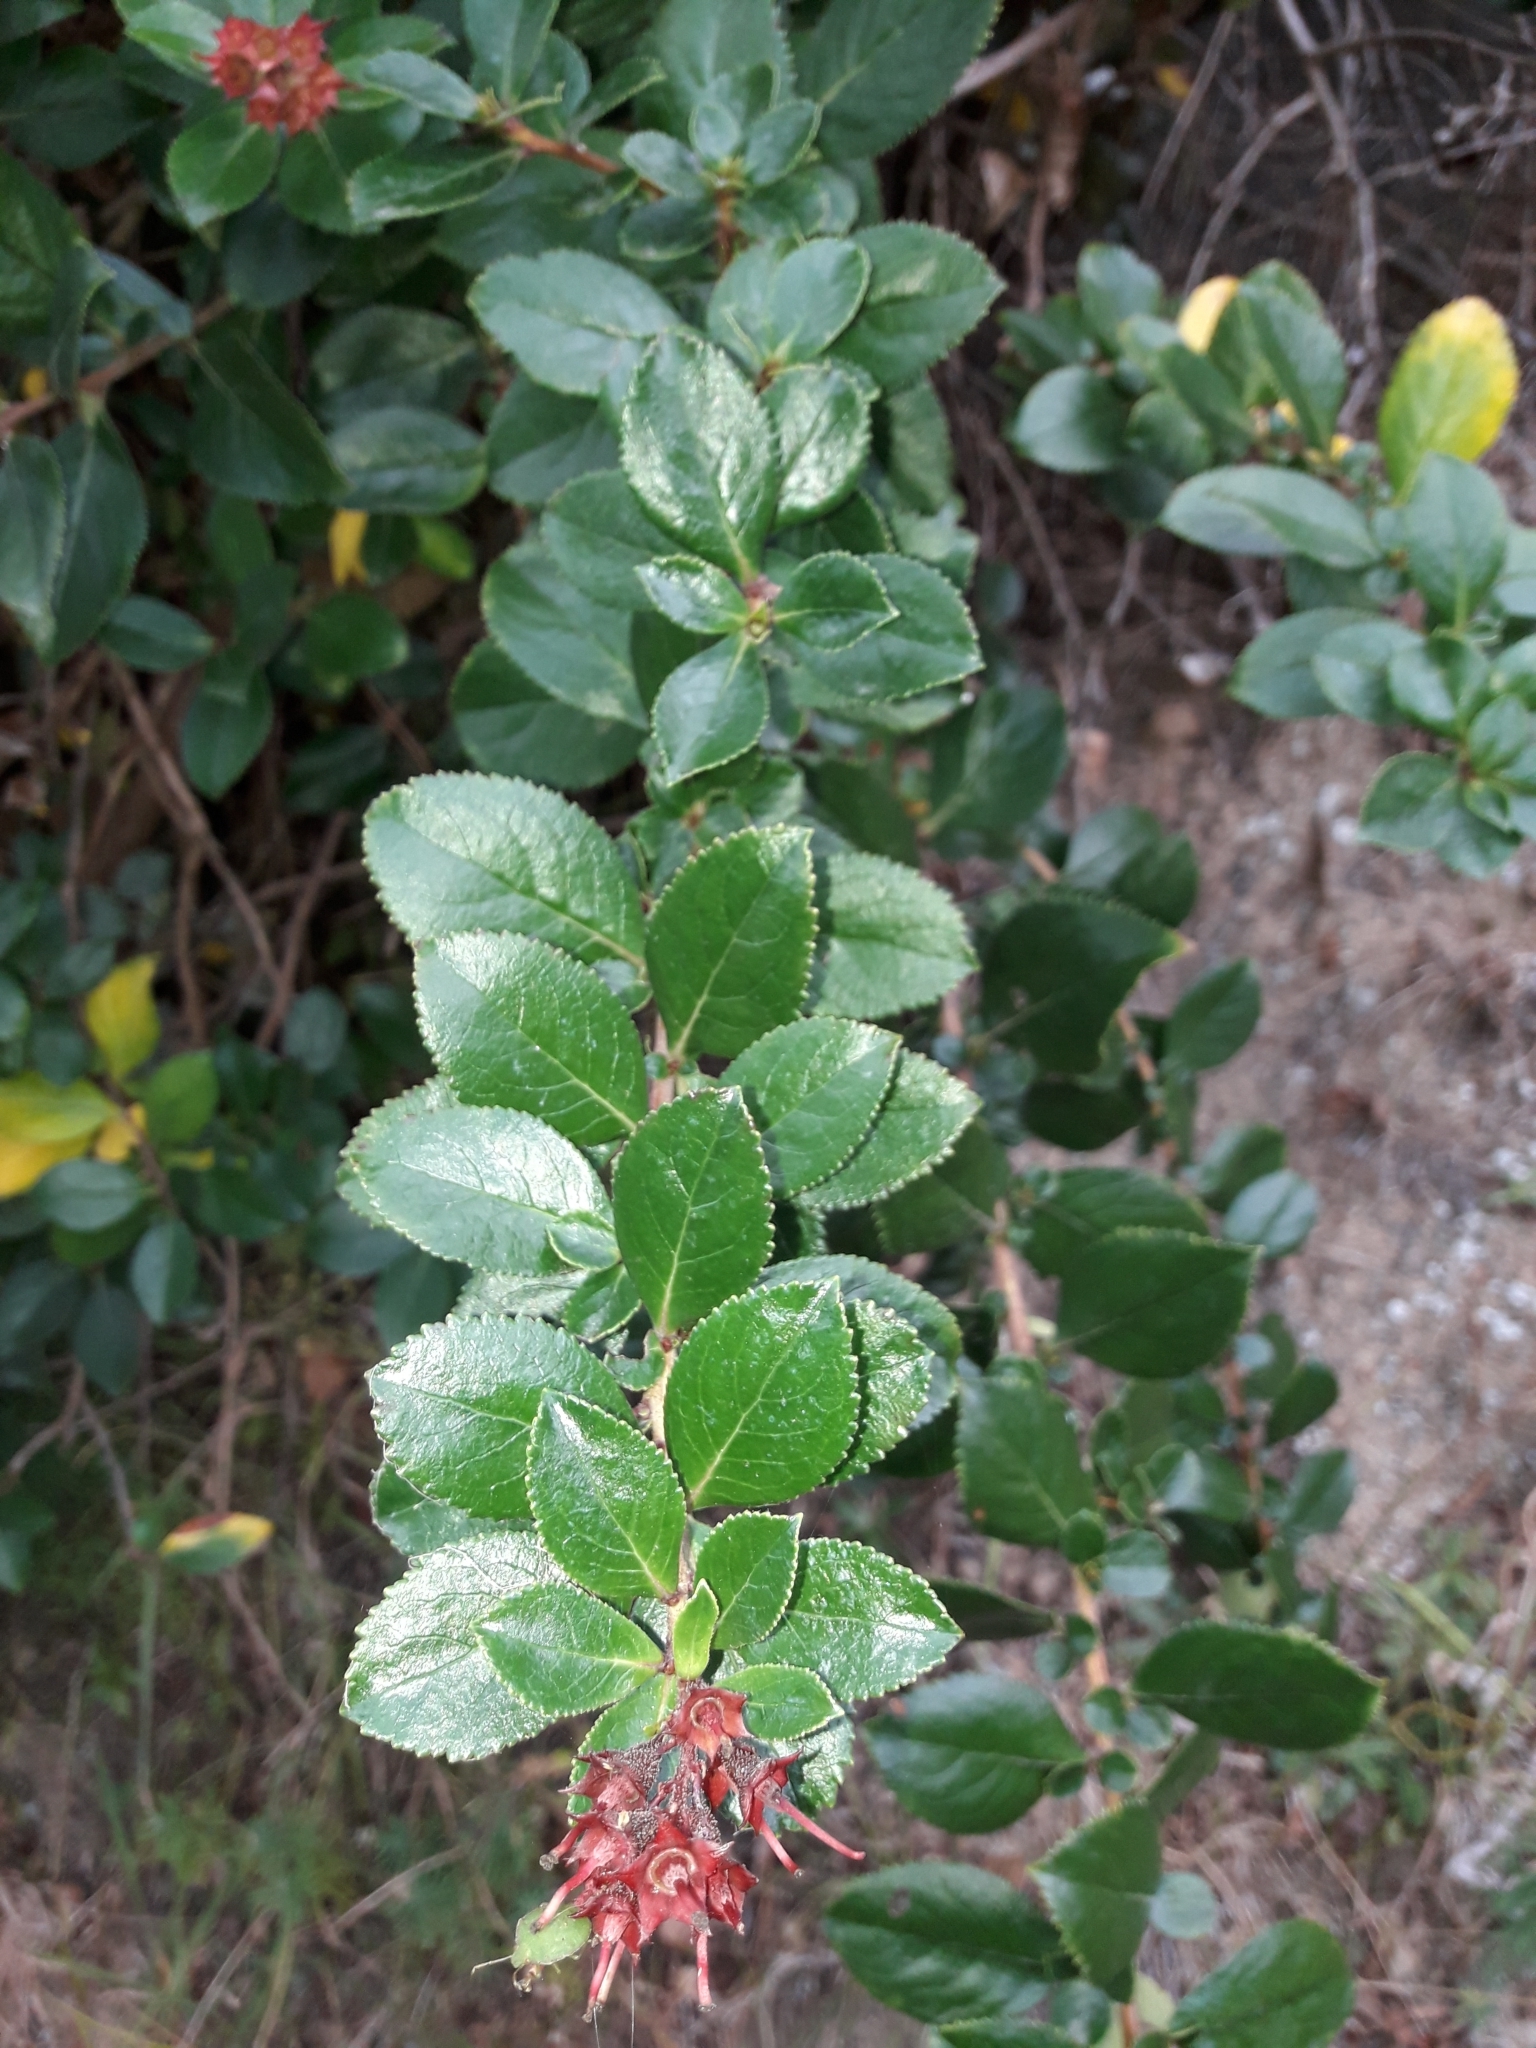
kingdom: Plantae
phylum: Tracheophyta
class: Magnoliopsida
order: Escalloniales
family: Escalloniaceae
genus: Escallonia
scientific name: Escallonia rubra
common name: Redclaws
